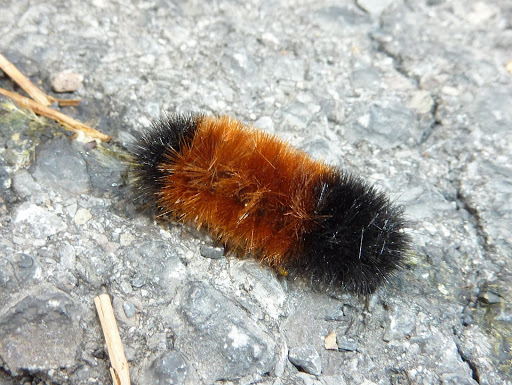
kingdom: Animalia
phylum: Arthropoda
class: Insecta
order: Lepidoptera
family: Erebidae
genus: Pyrrharctia
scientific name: Pyrrharctia isabella
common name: Isabella tiger moth
